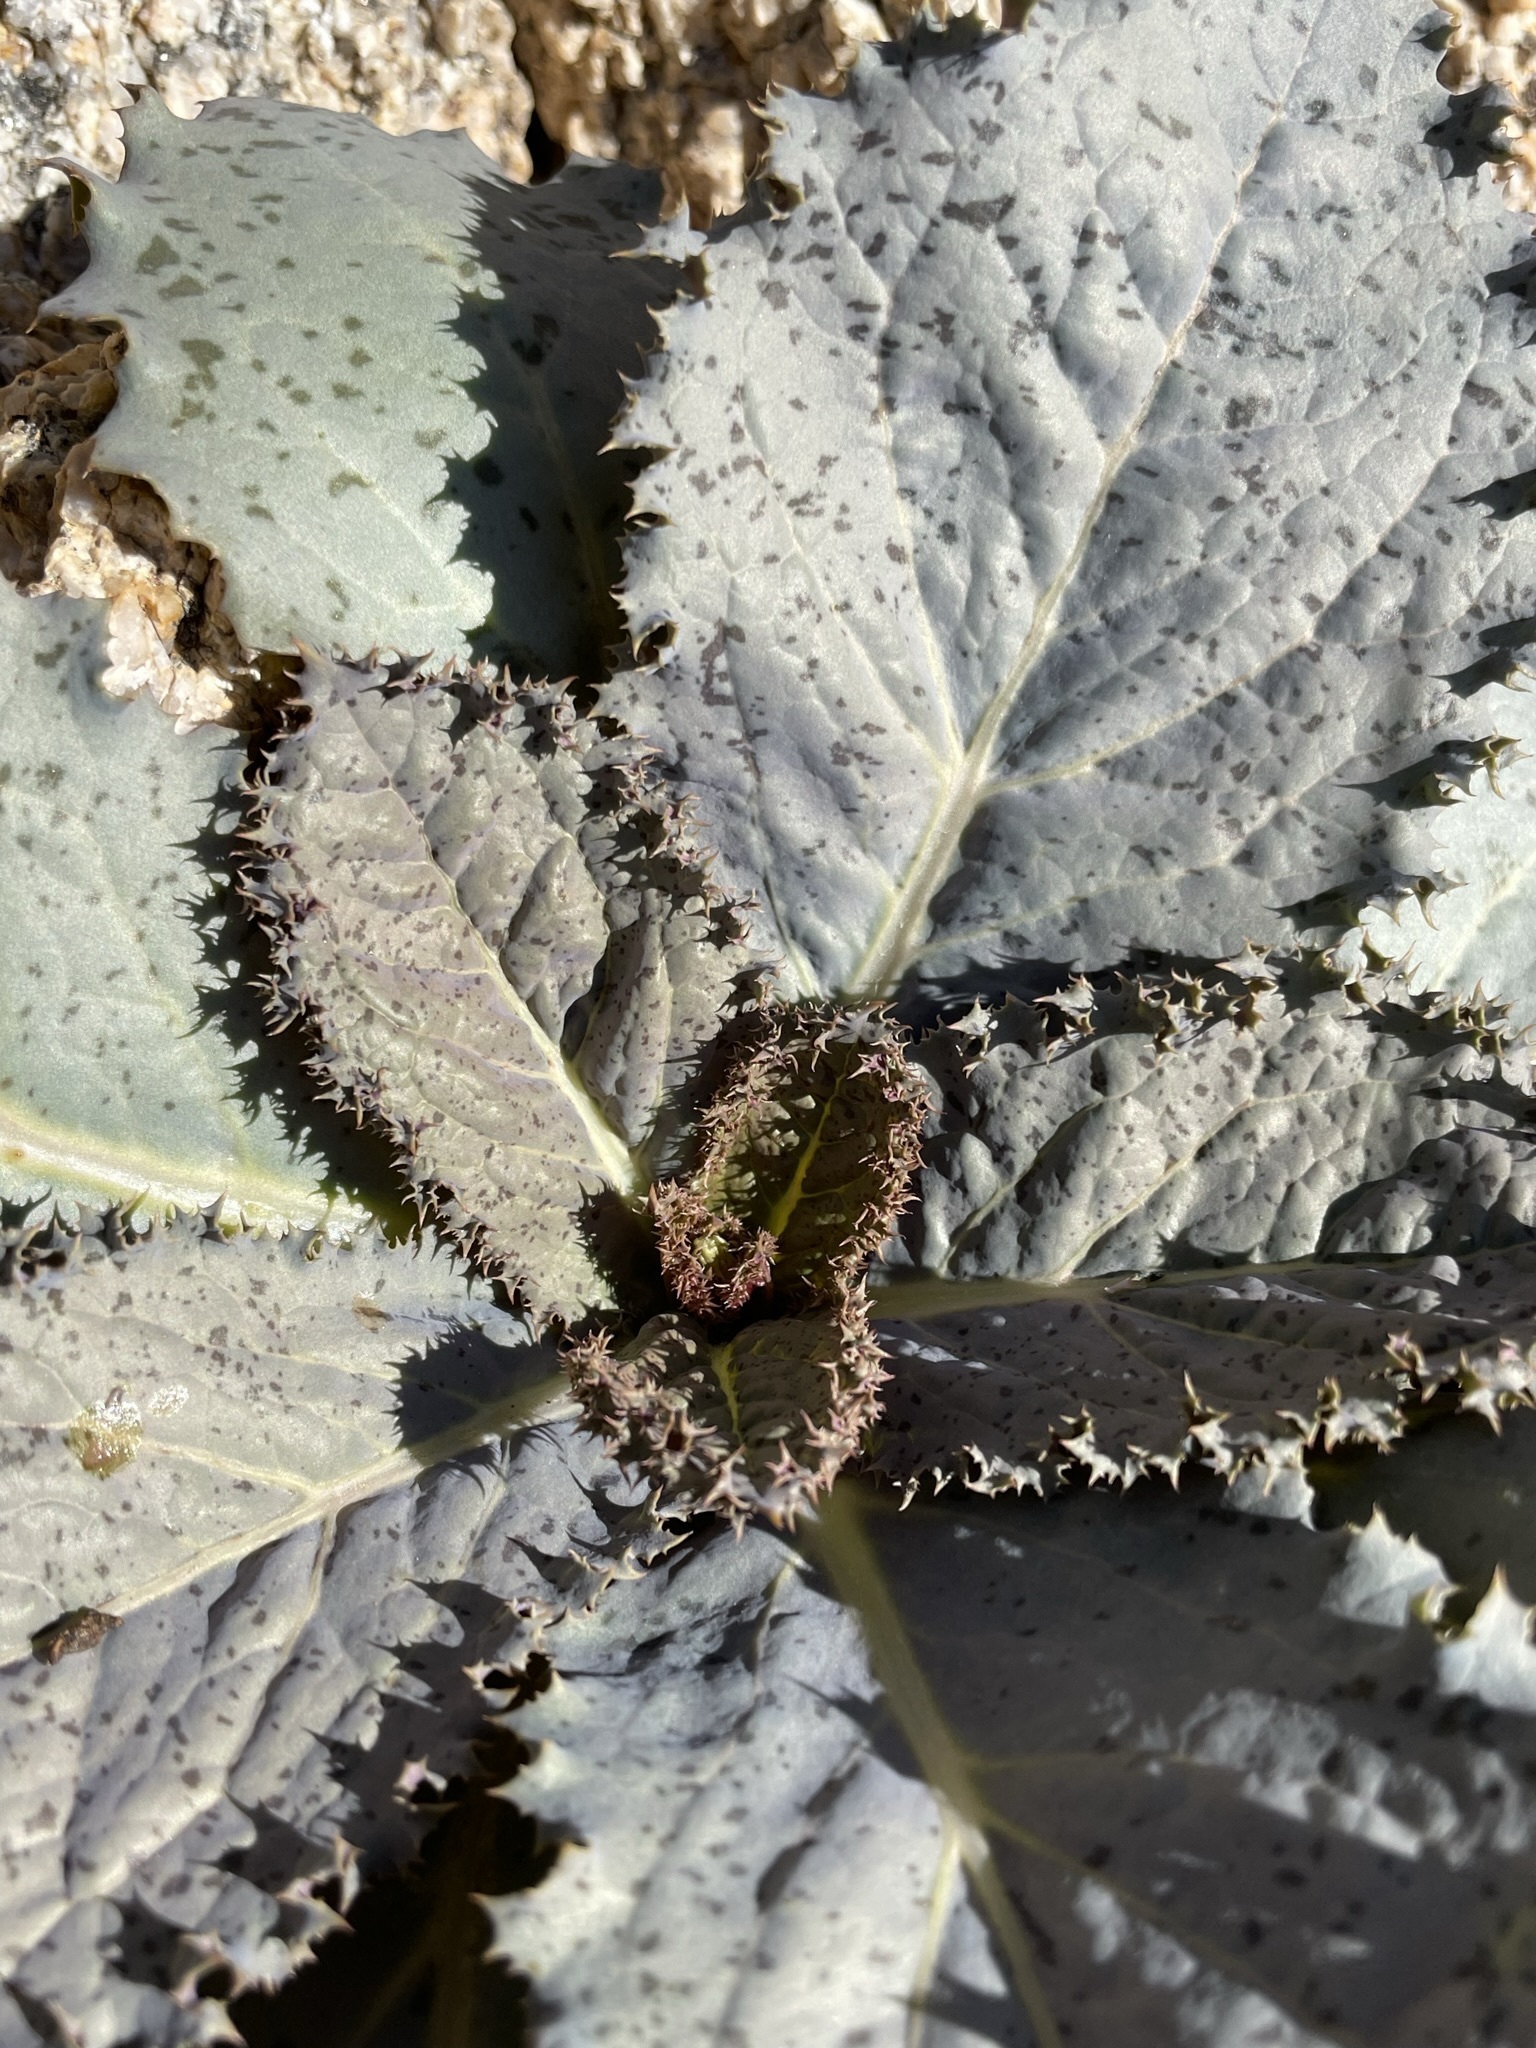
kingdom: Plantae
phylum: Tracheophyta
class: Magnoliopsida
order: Asterales
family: Asteraceae
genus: Atrichoseris
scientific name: Atrichoseris platyphylla
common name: Tobaccoweed
